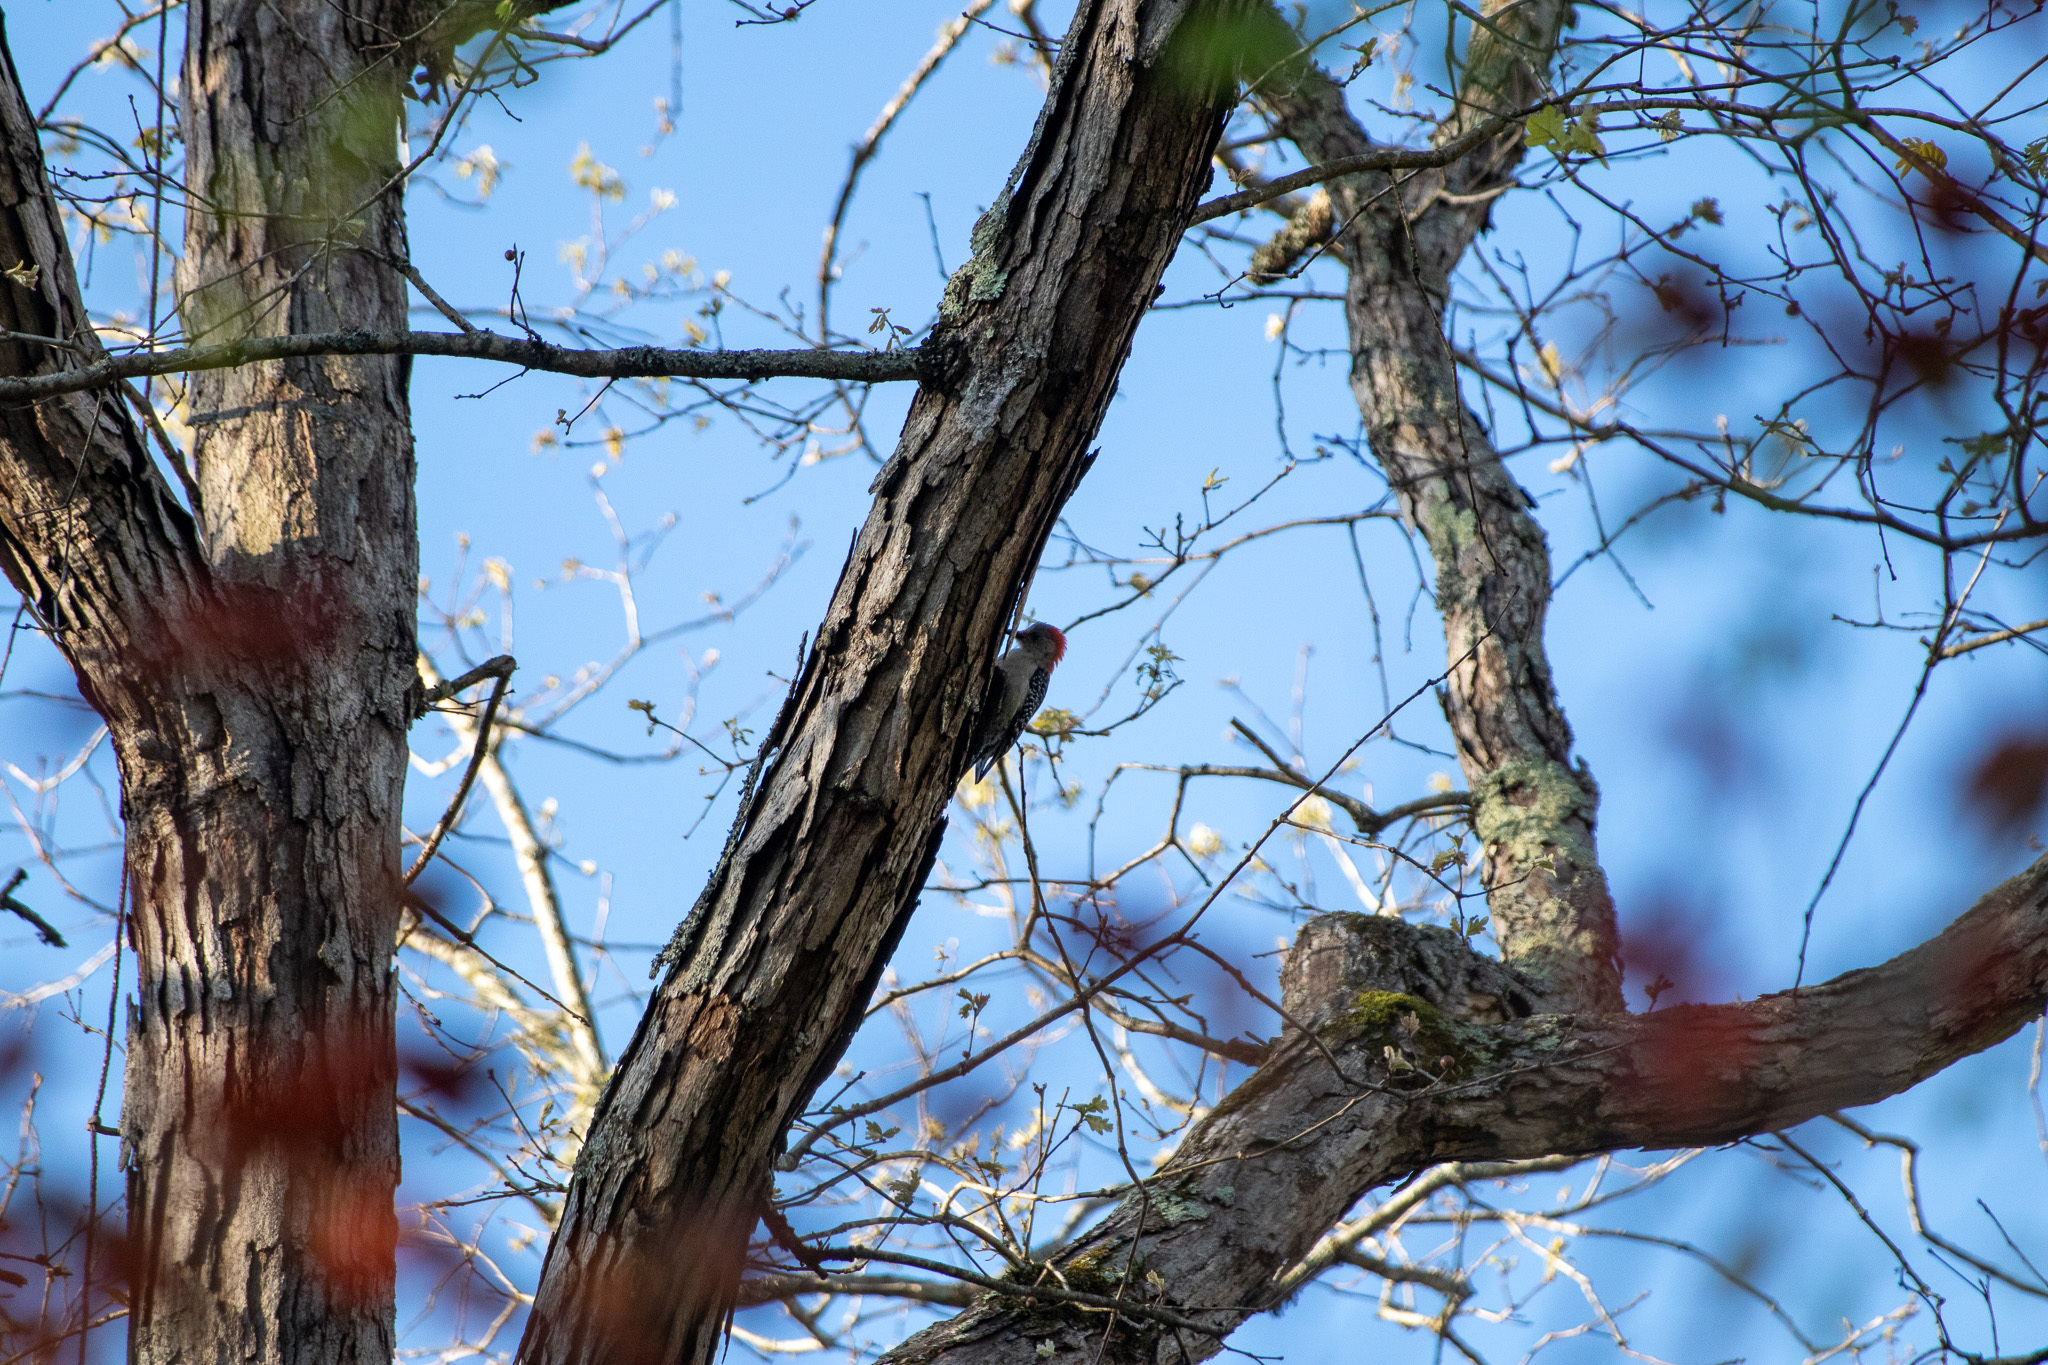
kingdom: Animalia
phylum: Chordata
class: Aves
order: Piciformes
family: Picidae
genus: Melanerpes
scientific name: Melanerpes carolinus
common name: Red-bellied woodpecker
